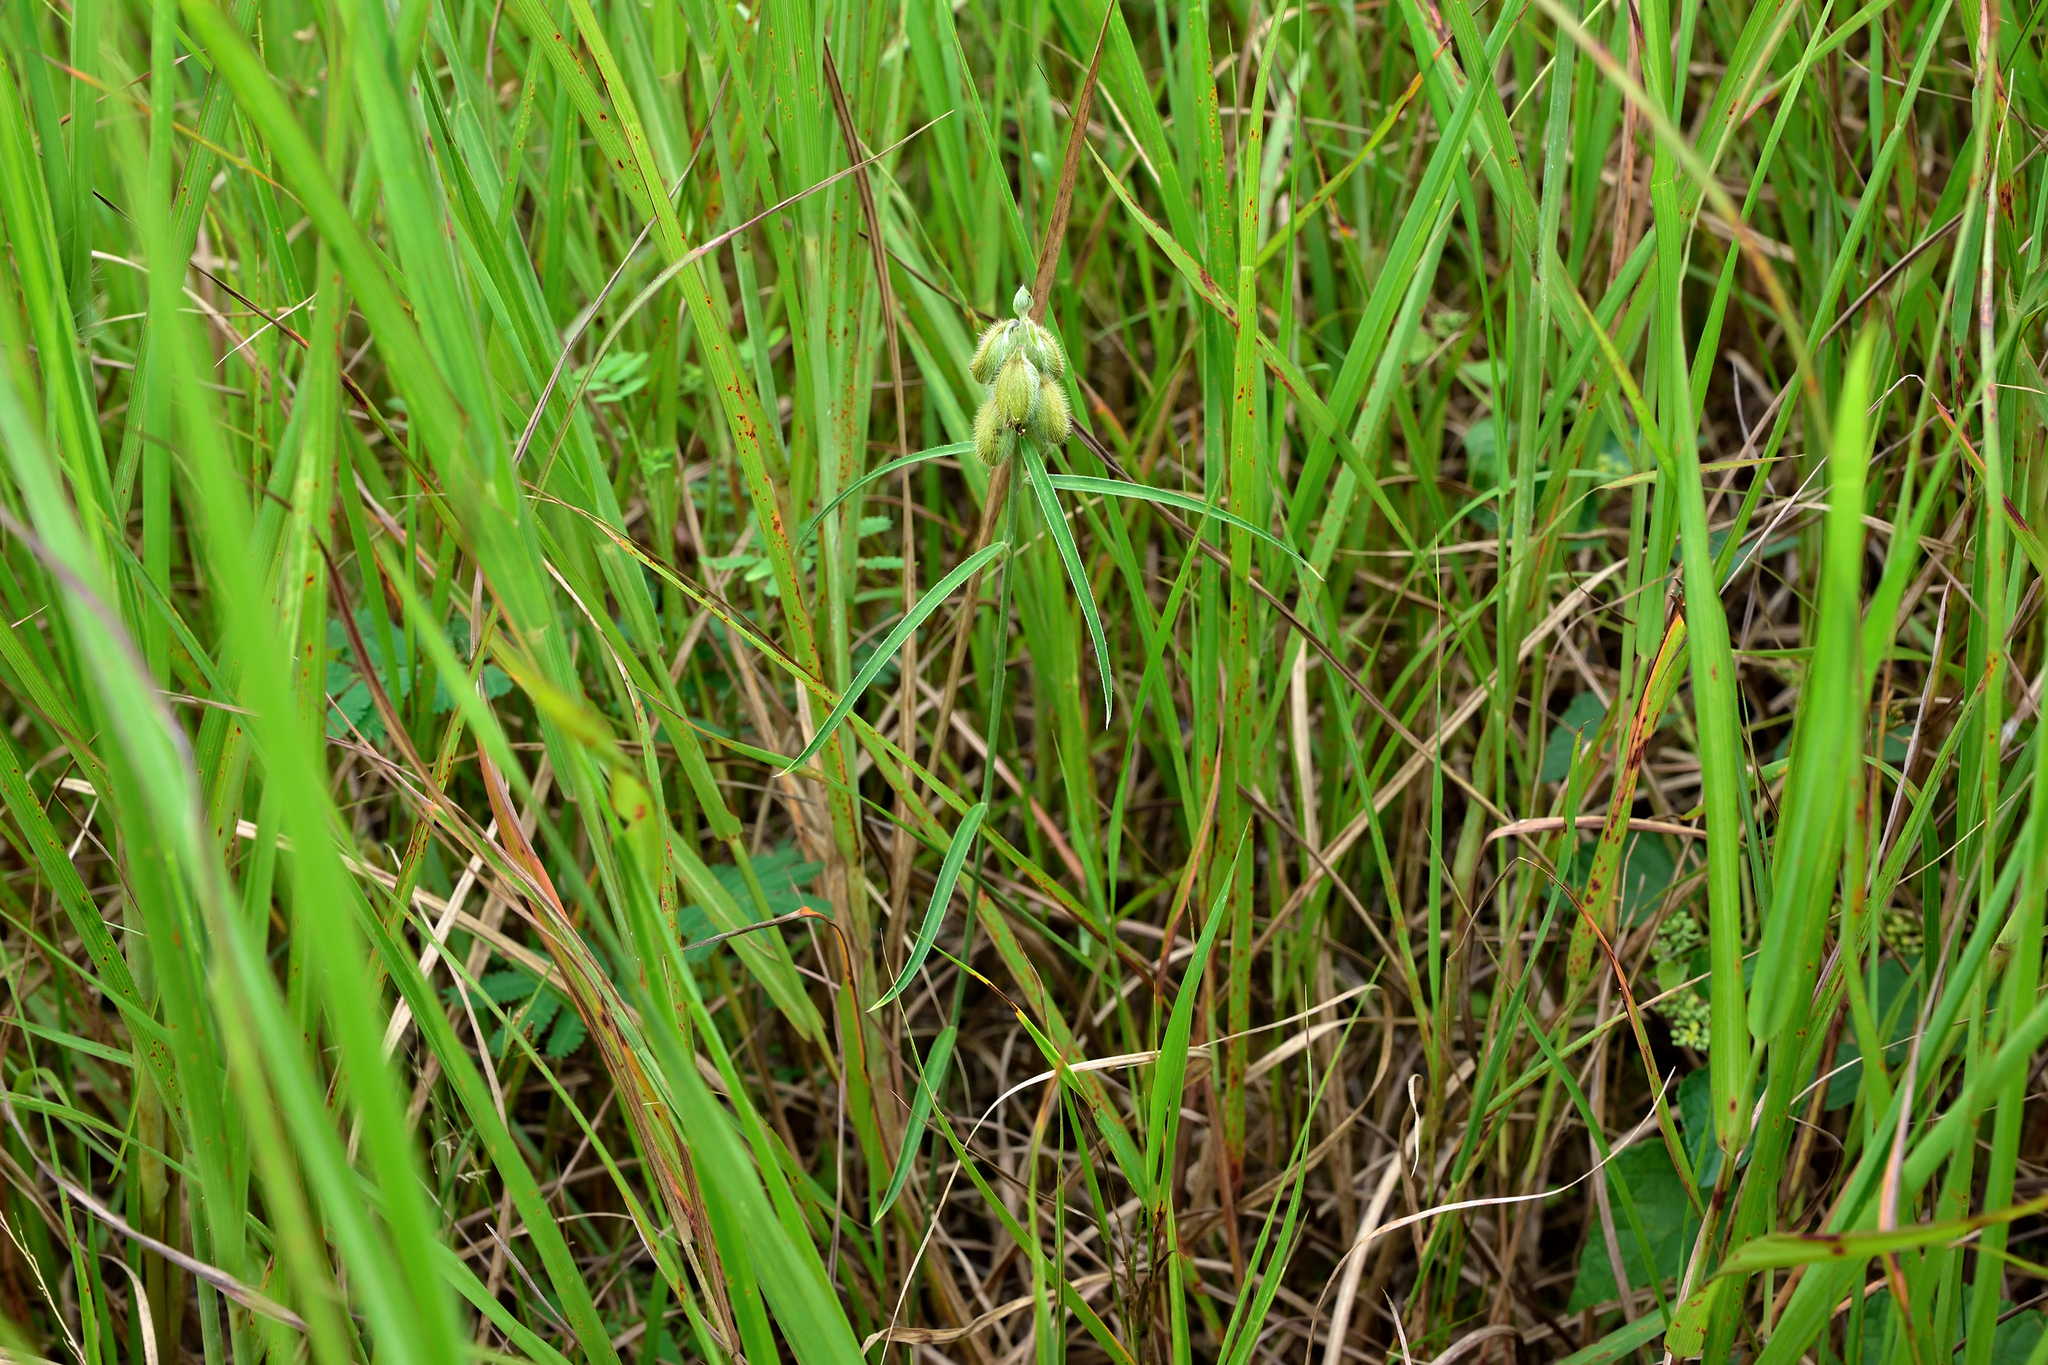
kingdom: Plantae
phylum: Tracheophyta
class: Magnoliopsida
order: Fabales
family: Fabaceae
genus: Crotalaria
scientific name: Crotalaria sessiliflora
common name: Rattlebox
